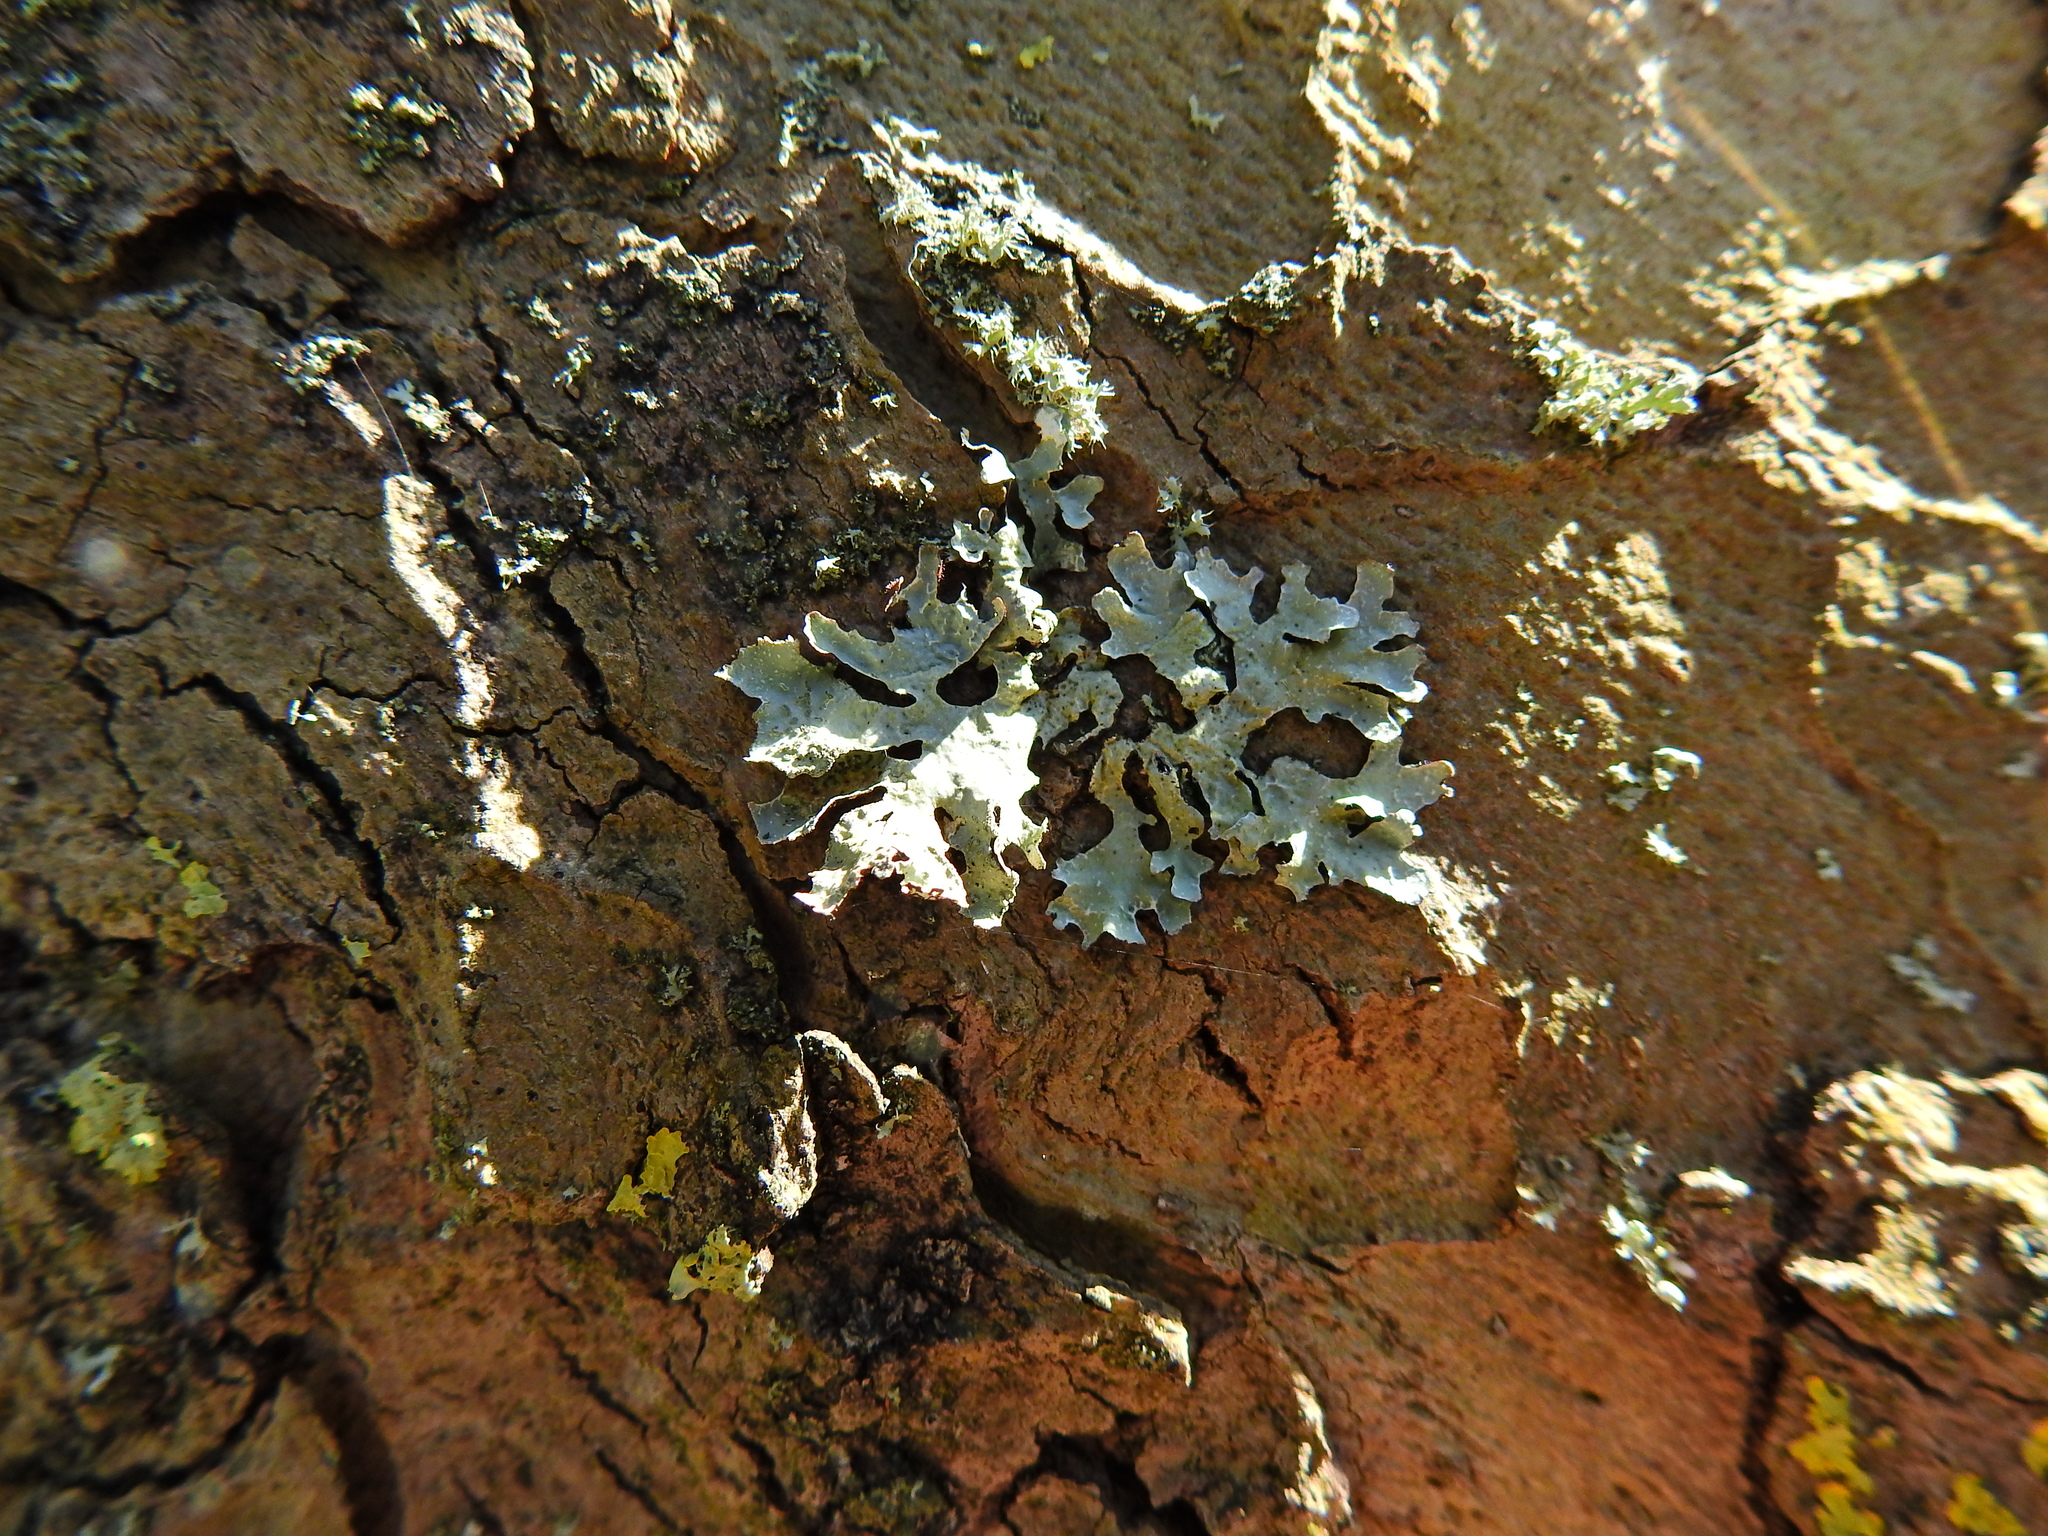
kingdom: Fungi
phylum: Ascomycota
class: Lecanoromycetes
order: Lecanorales
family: Parmeliaceae
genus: Parmelia
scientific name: Parmelia sulcata
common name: Netted shield lichen
